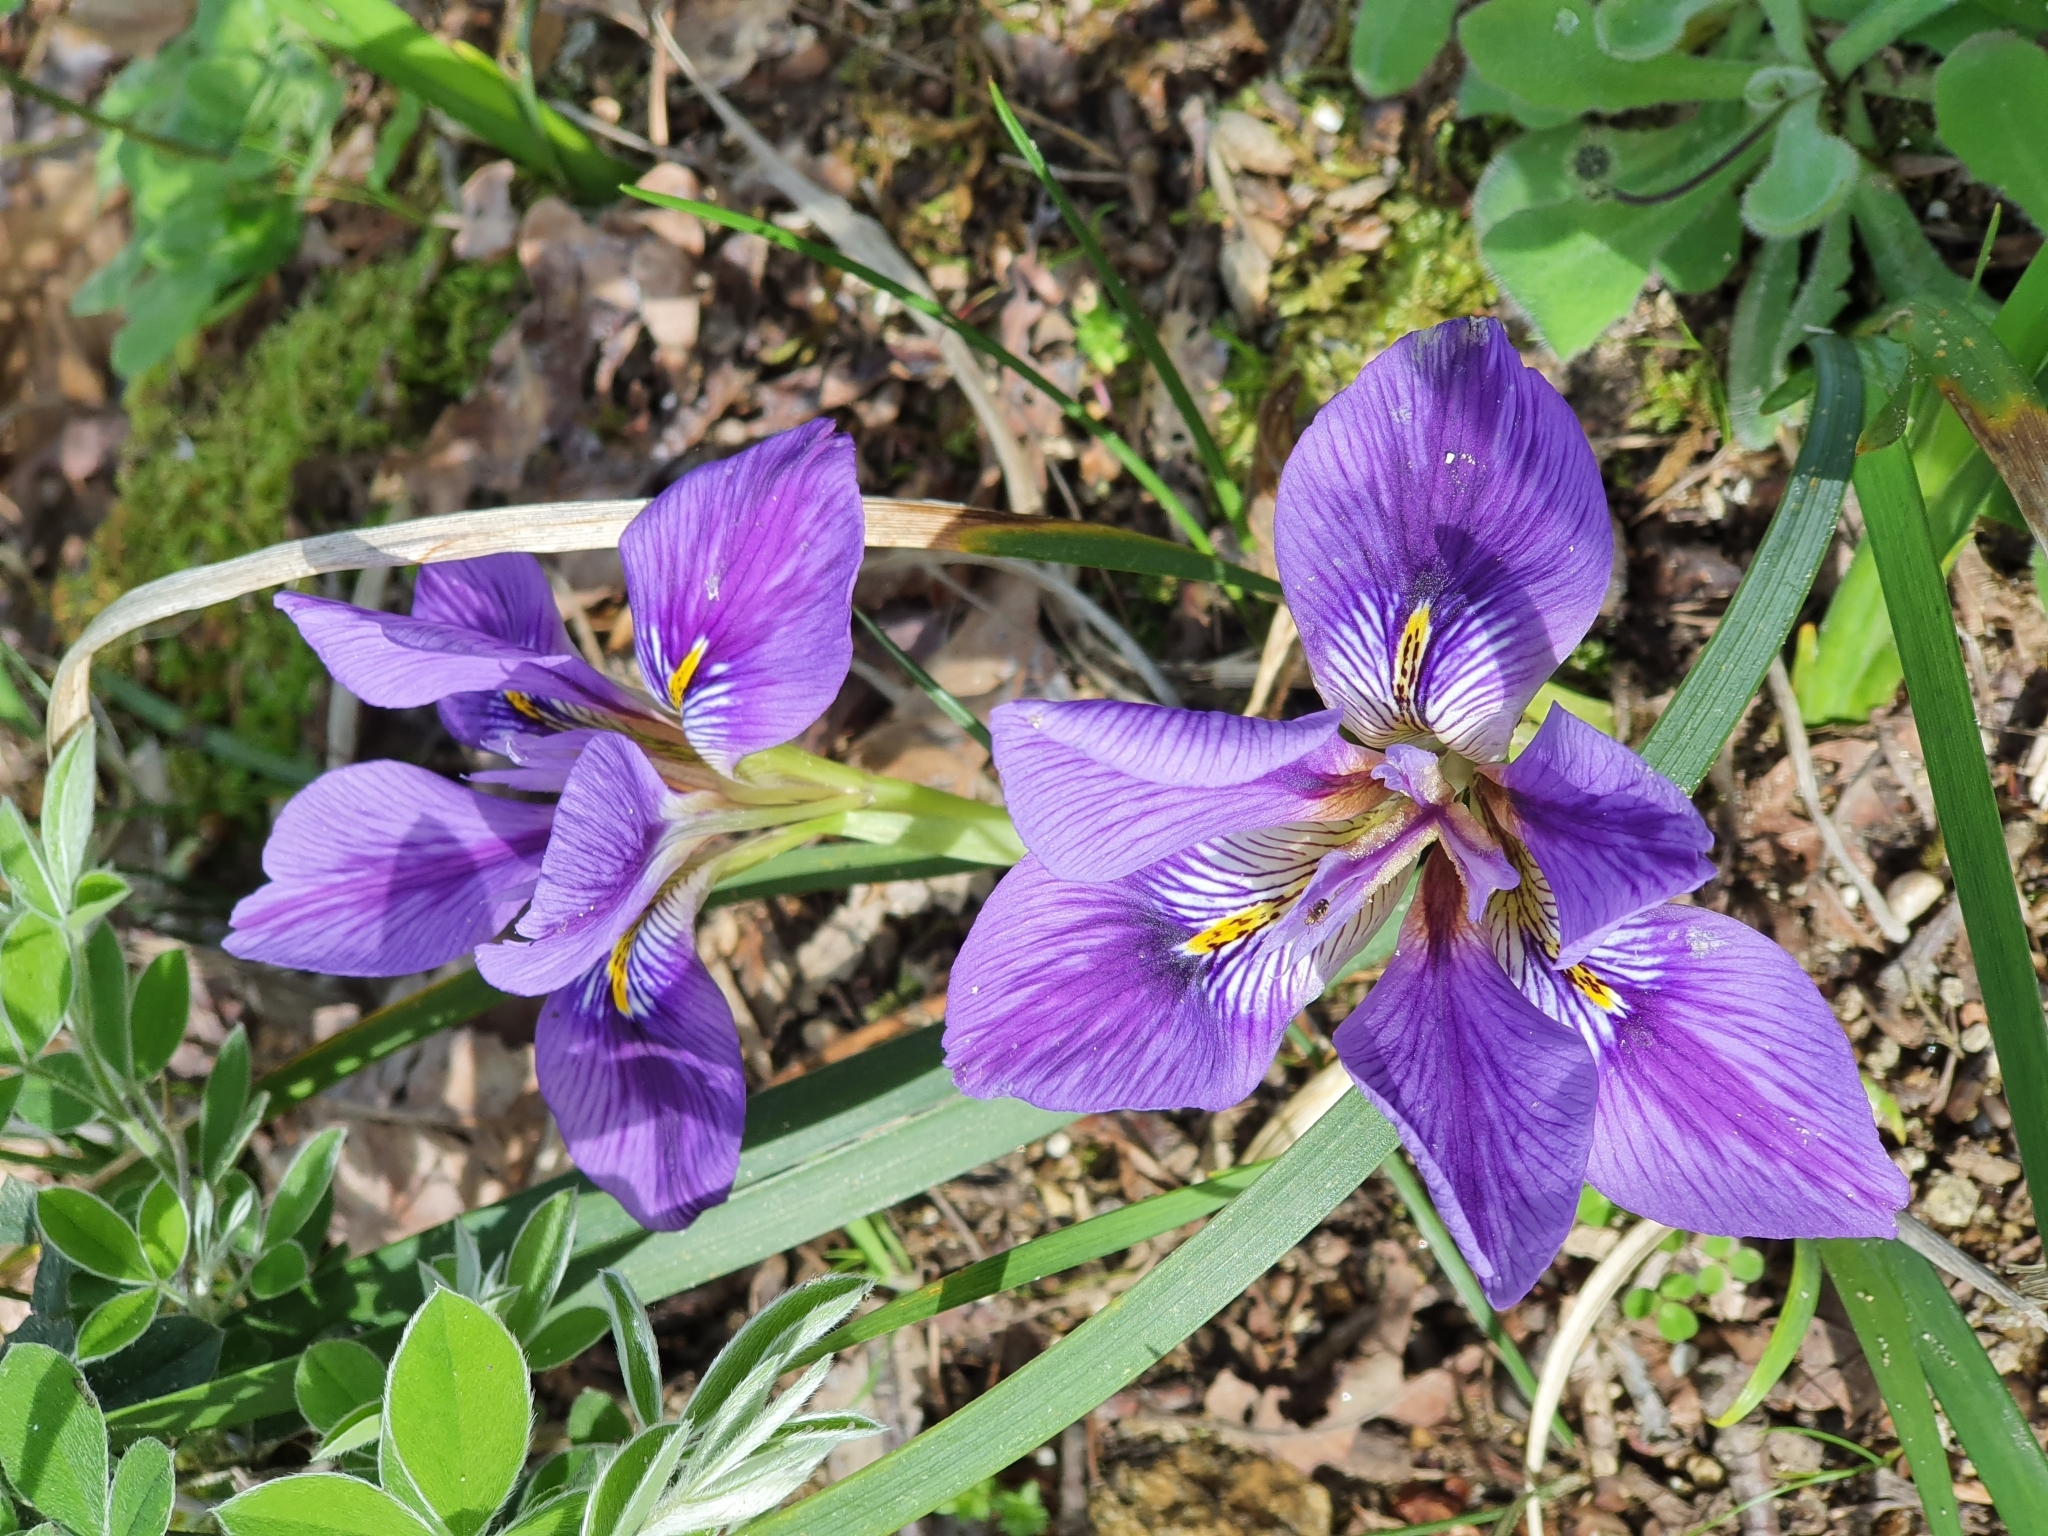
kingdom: Plantae
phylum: Tracheophyta
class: Liliopsida
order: Asparagales
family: Iridaceae
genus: Iris
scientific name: Iris unguicularis
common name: Algerian iris
